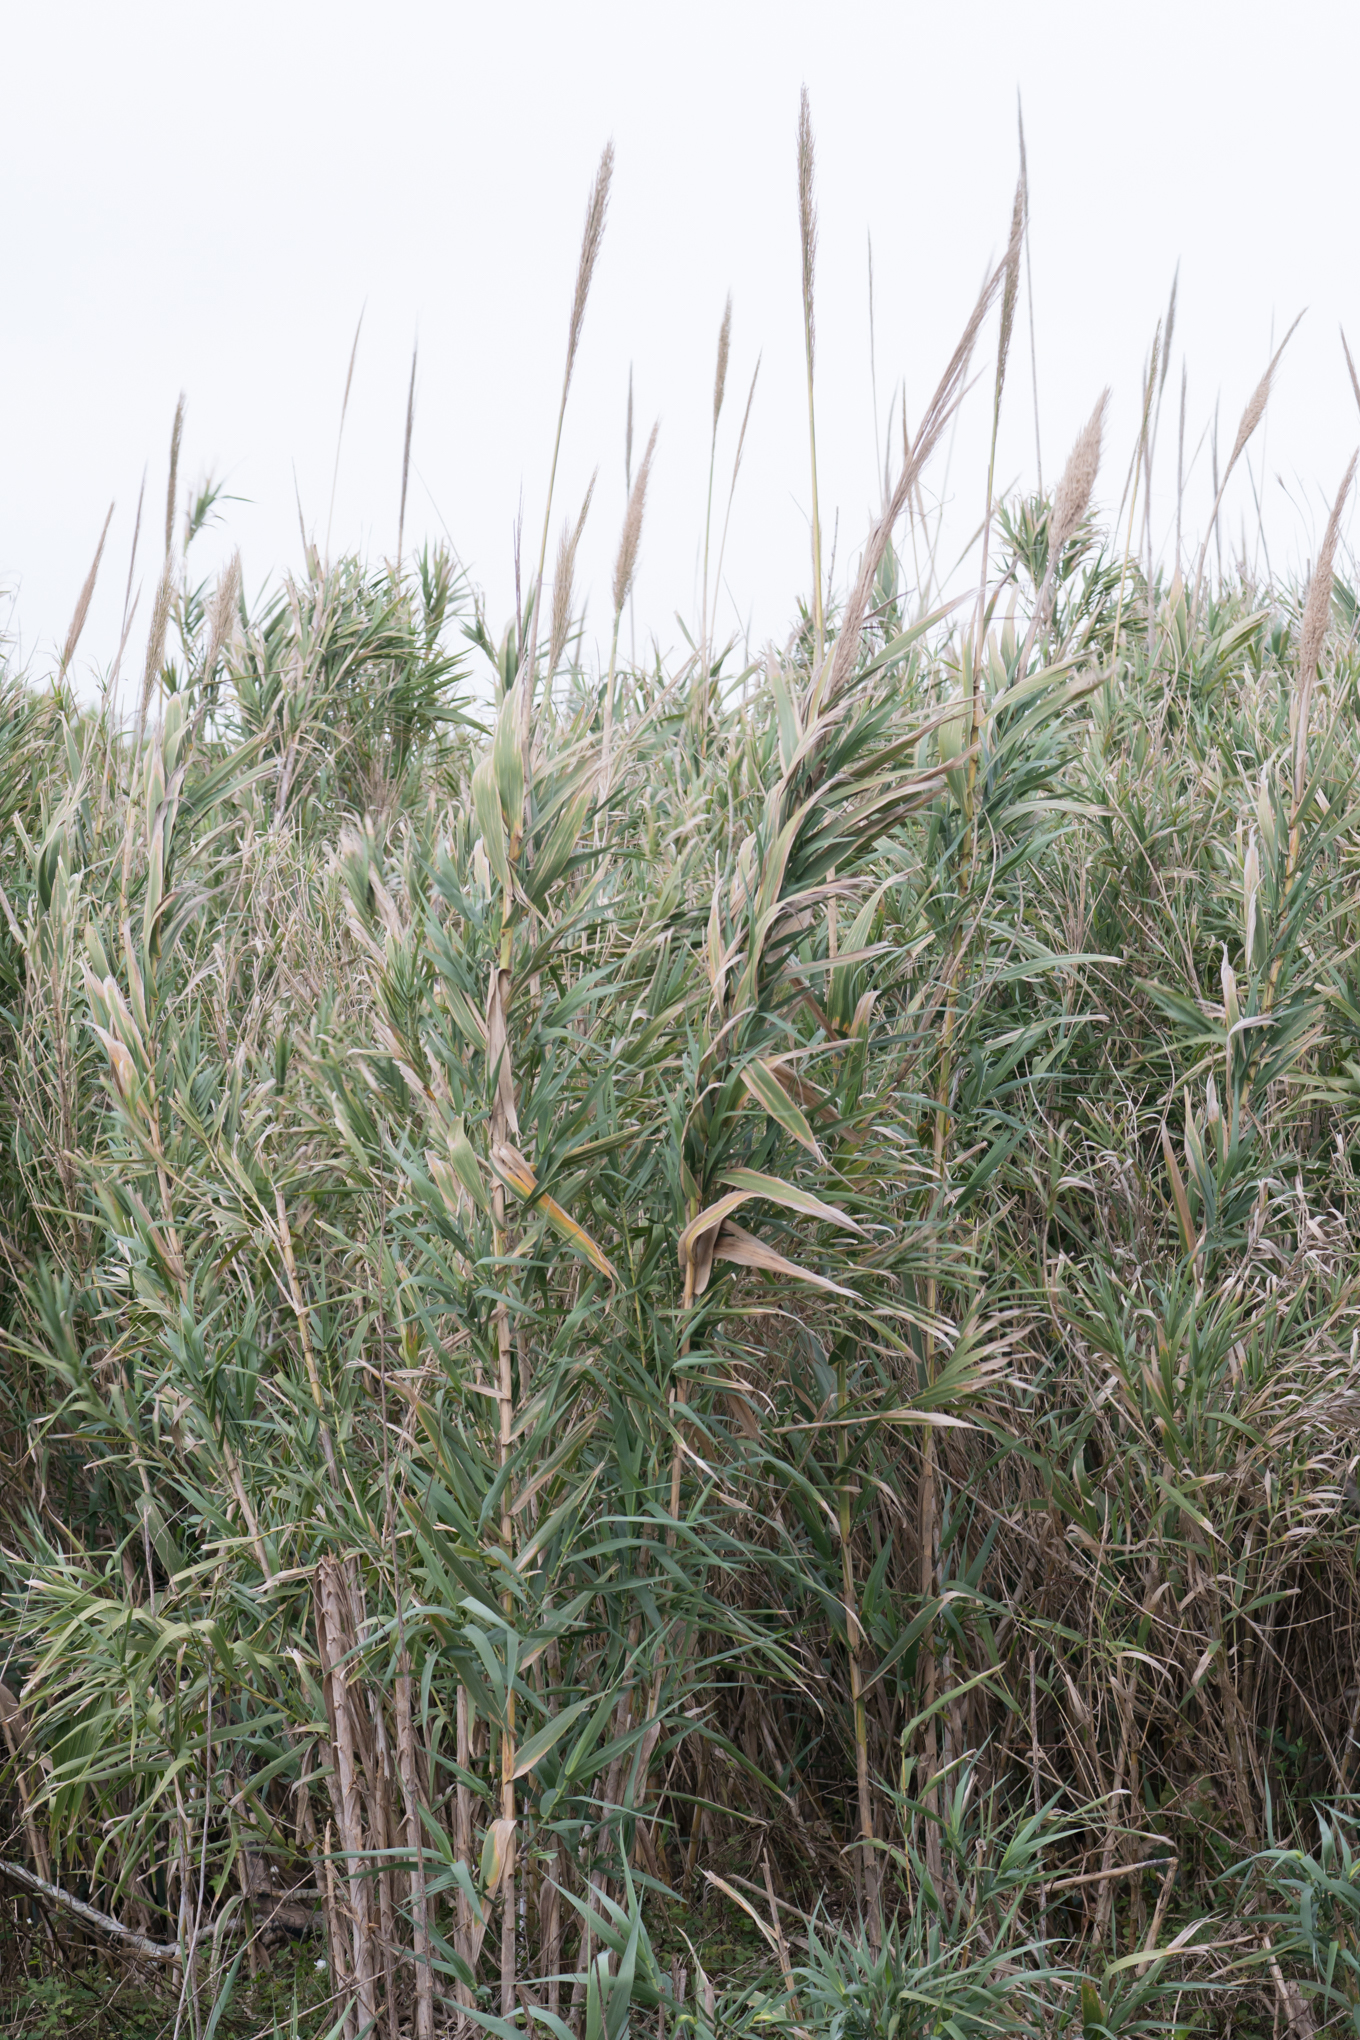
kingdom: Plantae
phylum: Tracheophyta
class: Liliopsida
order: Poales
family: Poaceae
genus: Arundo
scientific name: Arundo donax
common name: Giant reed
